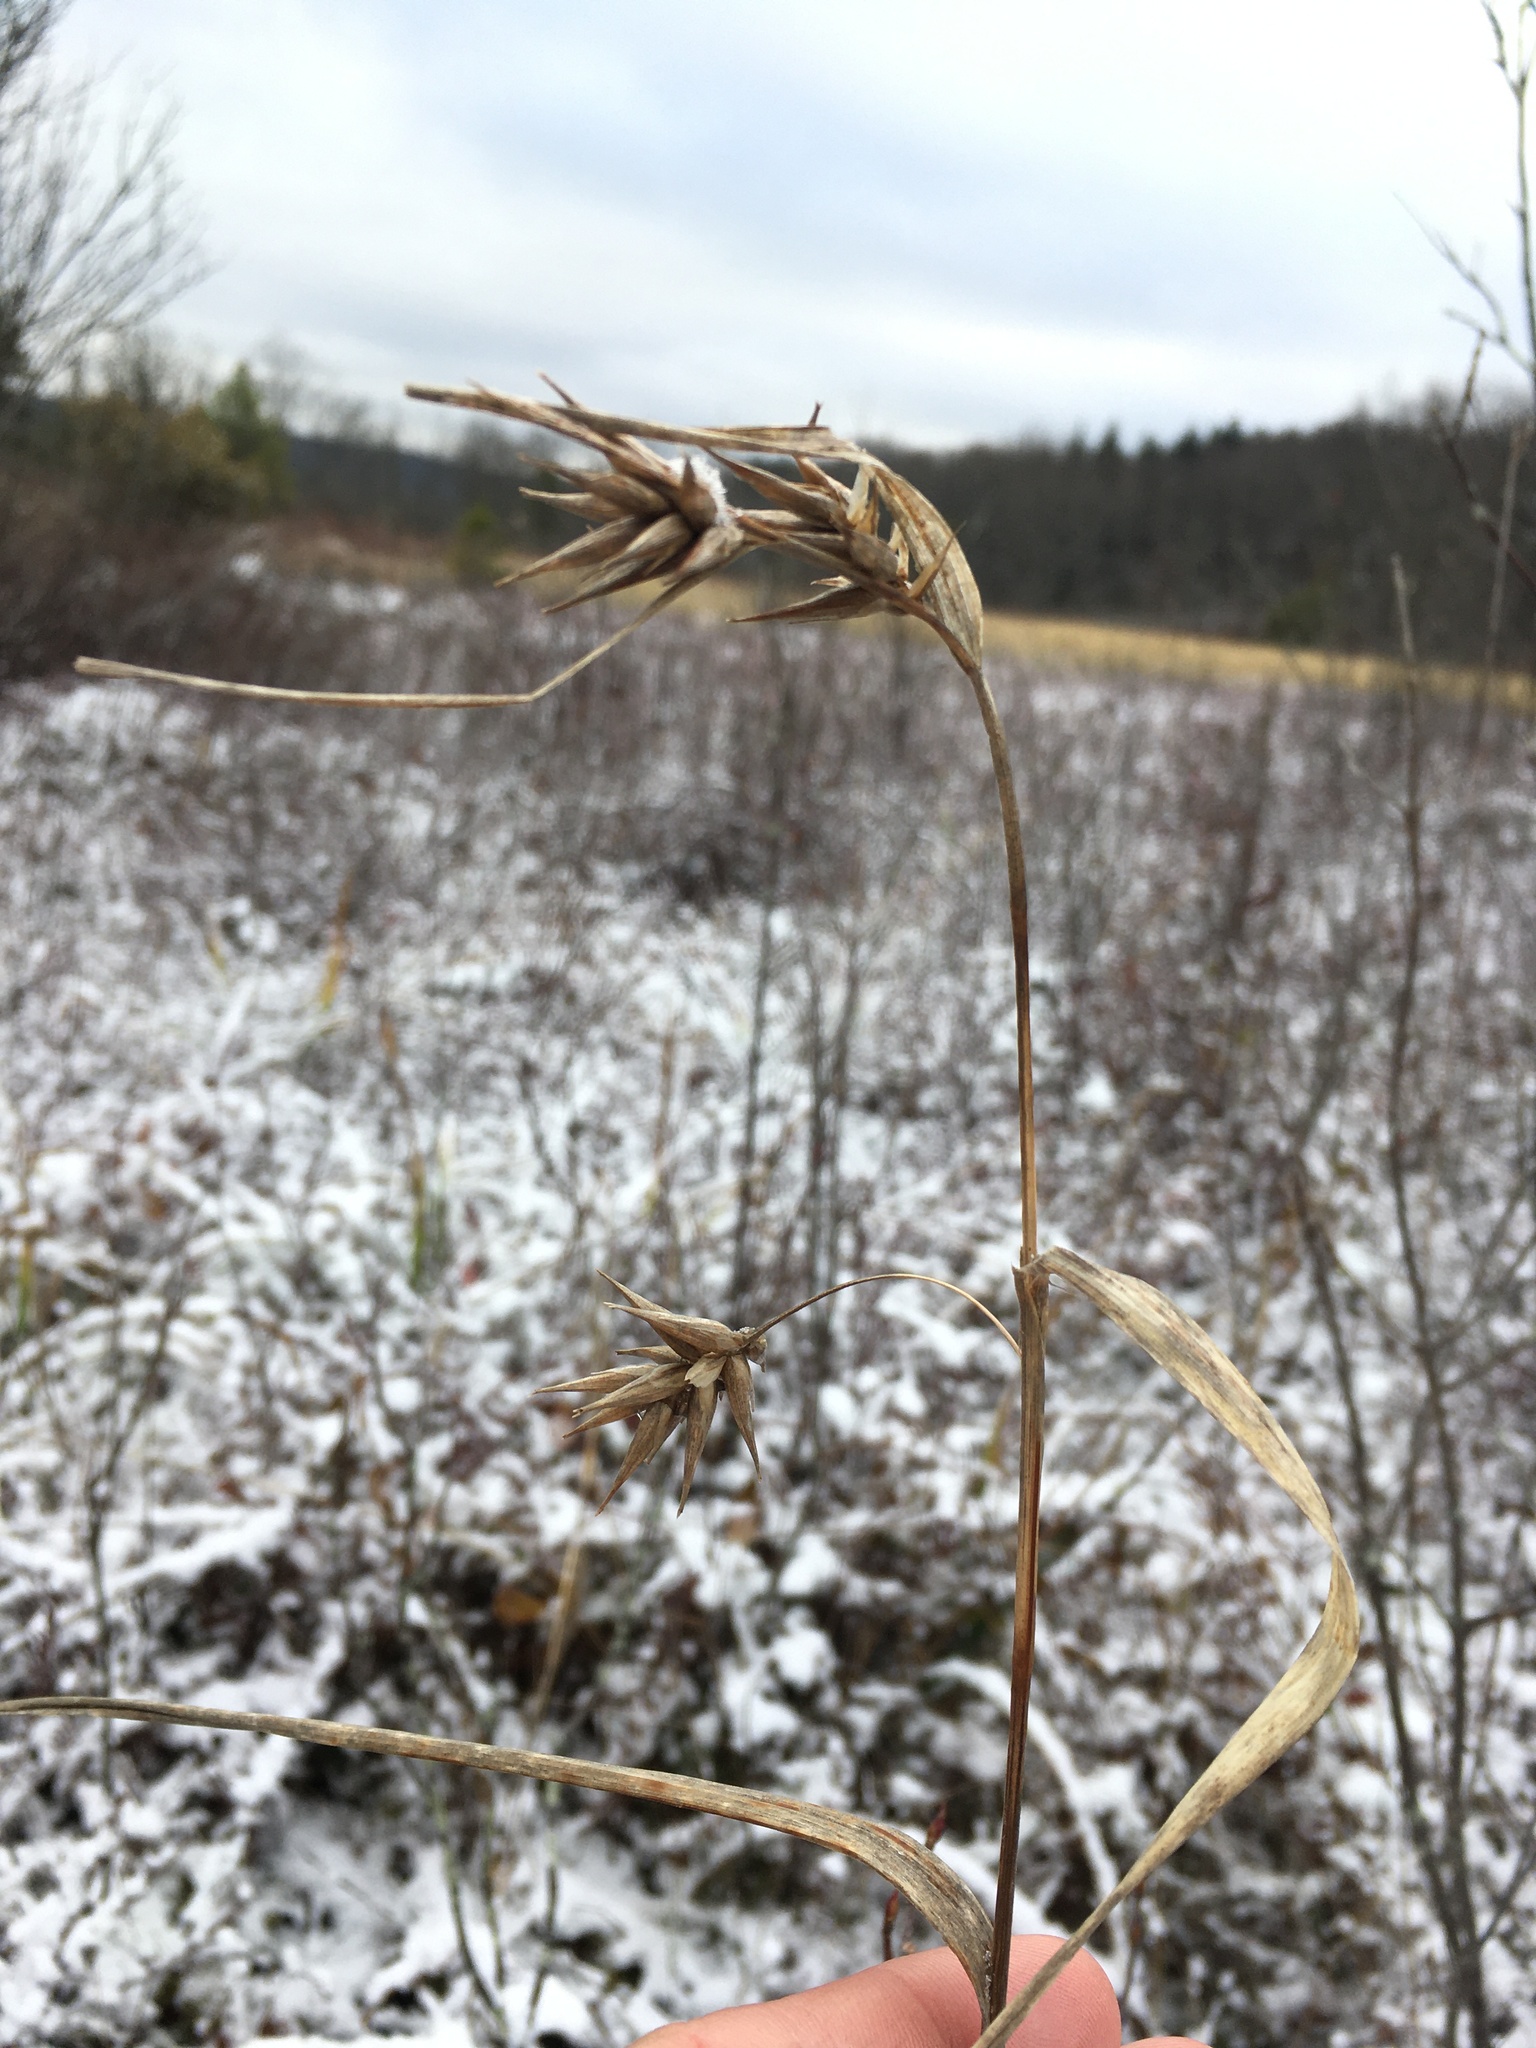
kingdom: Plantae
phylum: Tracheophyta
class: Liliopsida
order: Poales
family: Cyperaceae
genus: Carex
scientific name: Carex folliculata
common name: Northern long sedge
